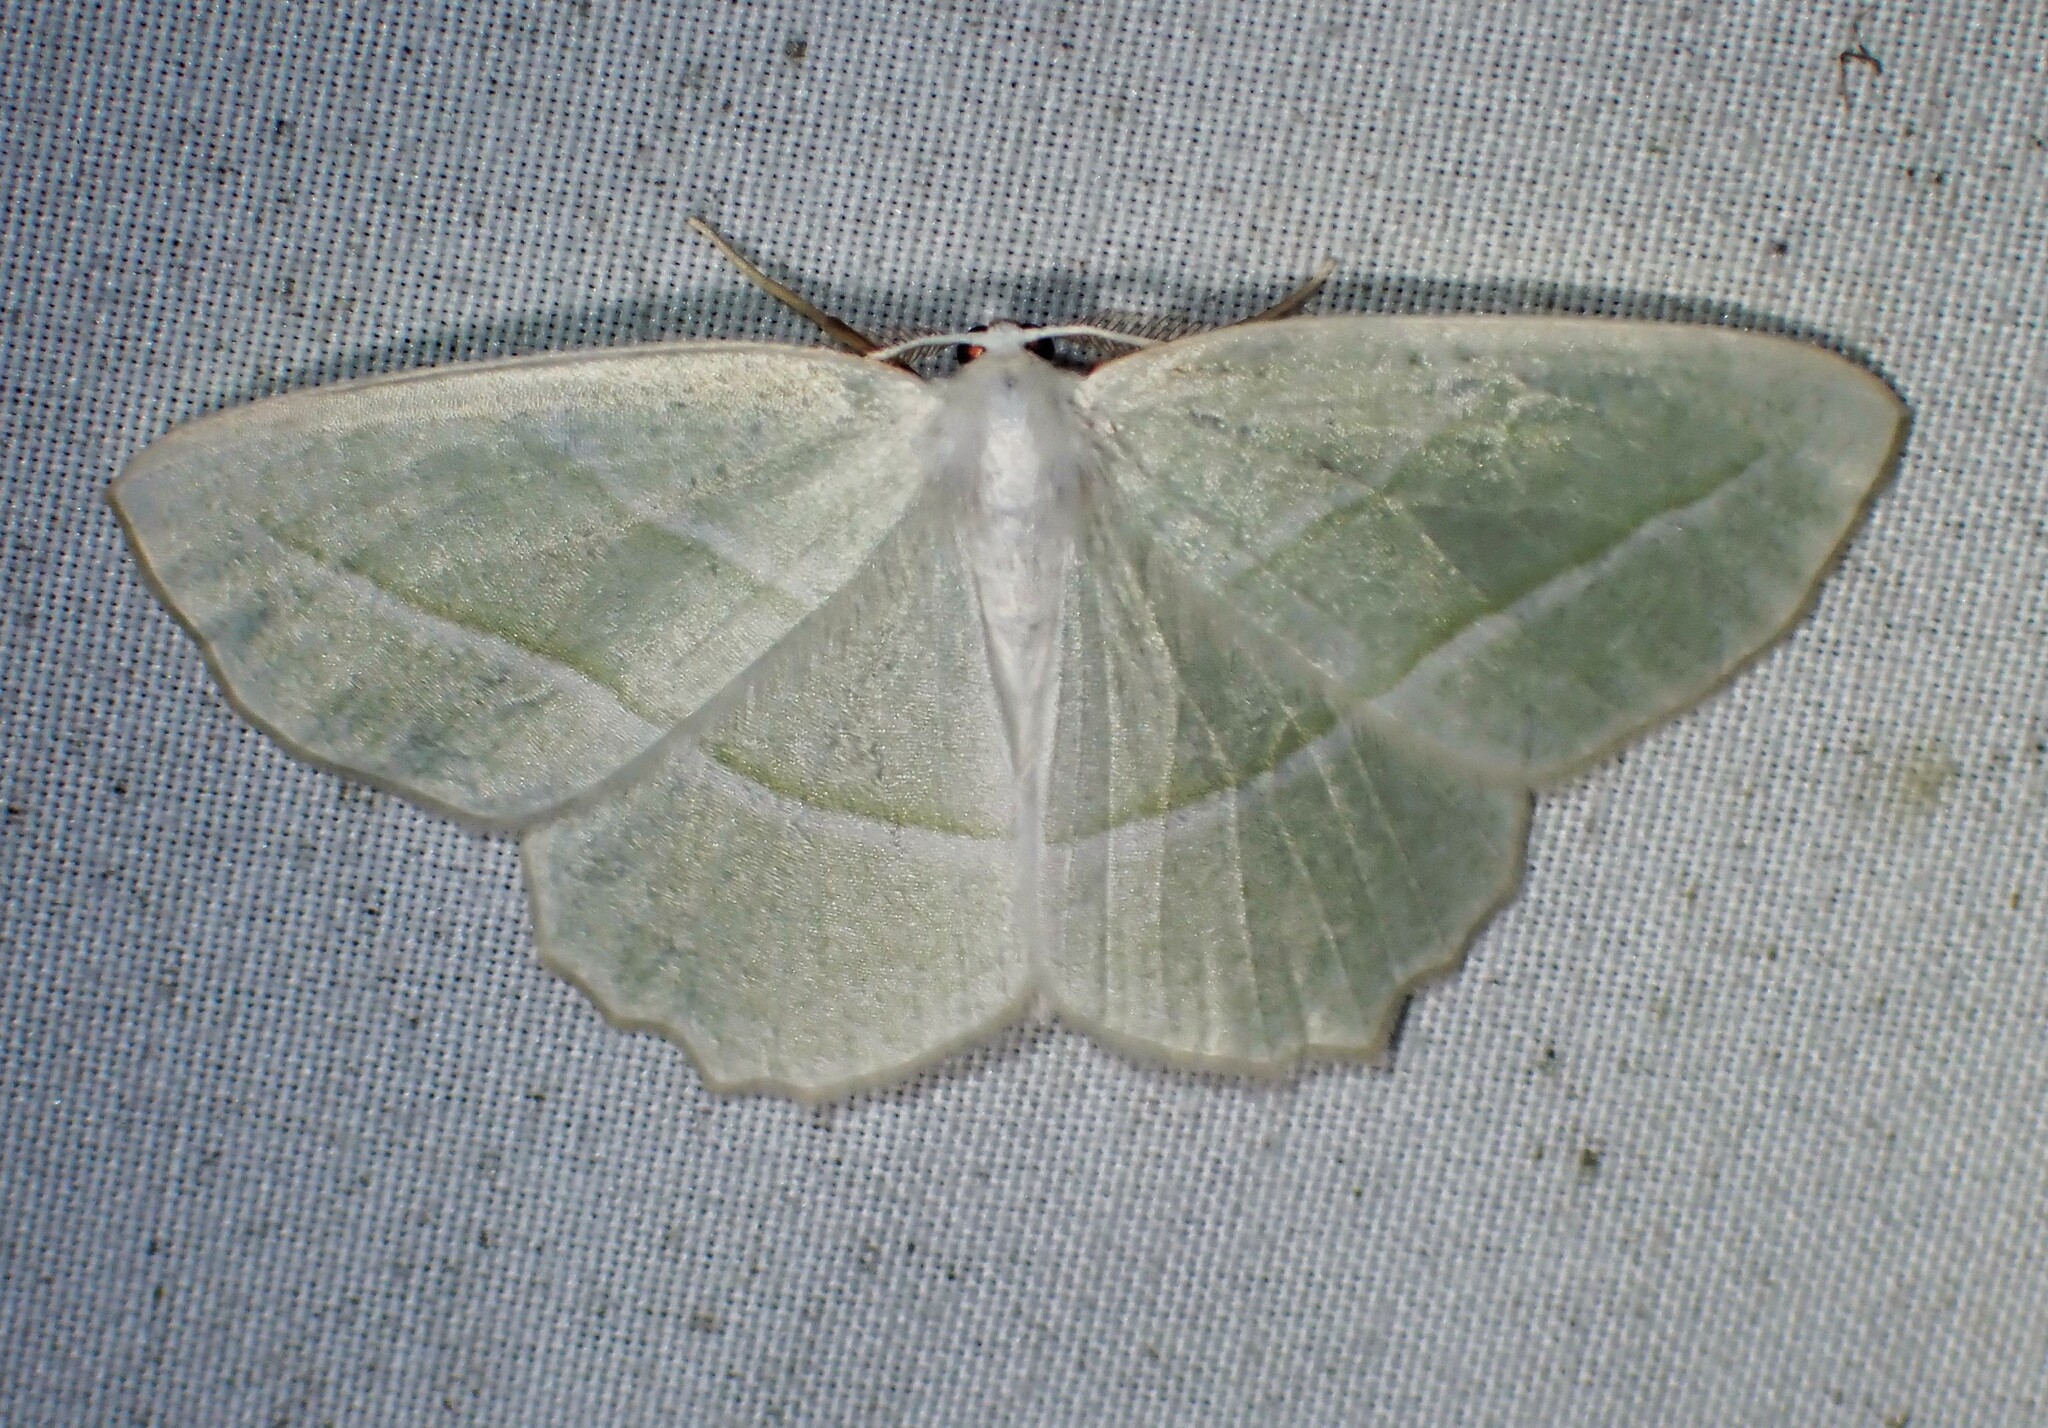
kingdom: Animalia
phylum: Arthropoda
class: Insecta
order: Lepidoptera
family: Geometridae
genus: Campaea
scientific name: Campaea perlata
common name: Fringed looper
